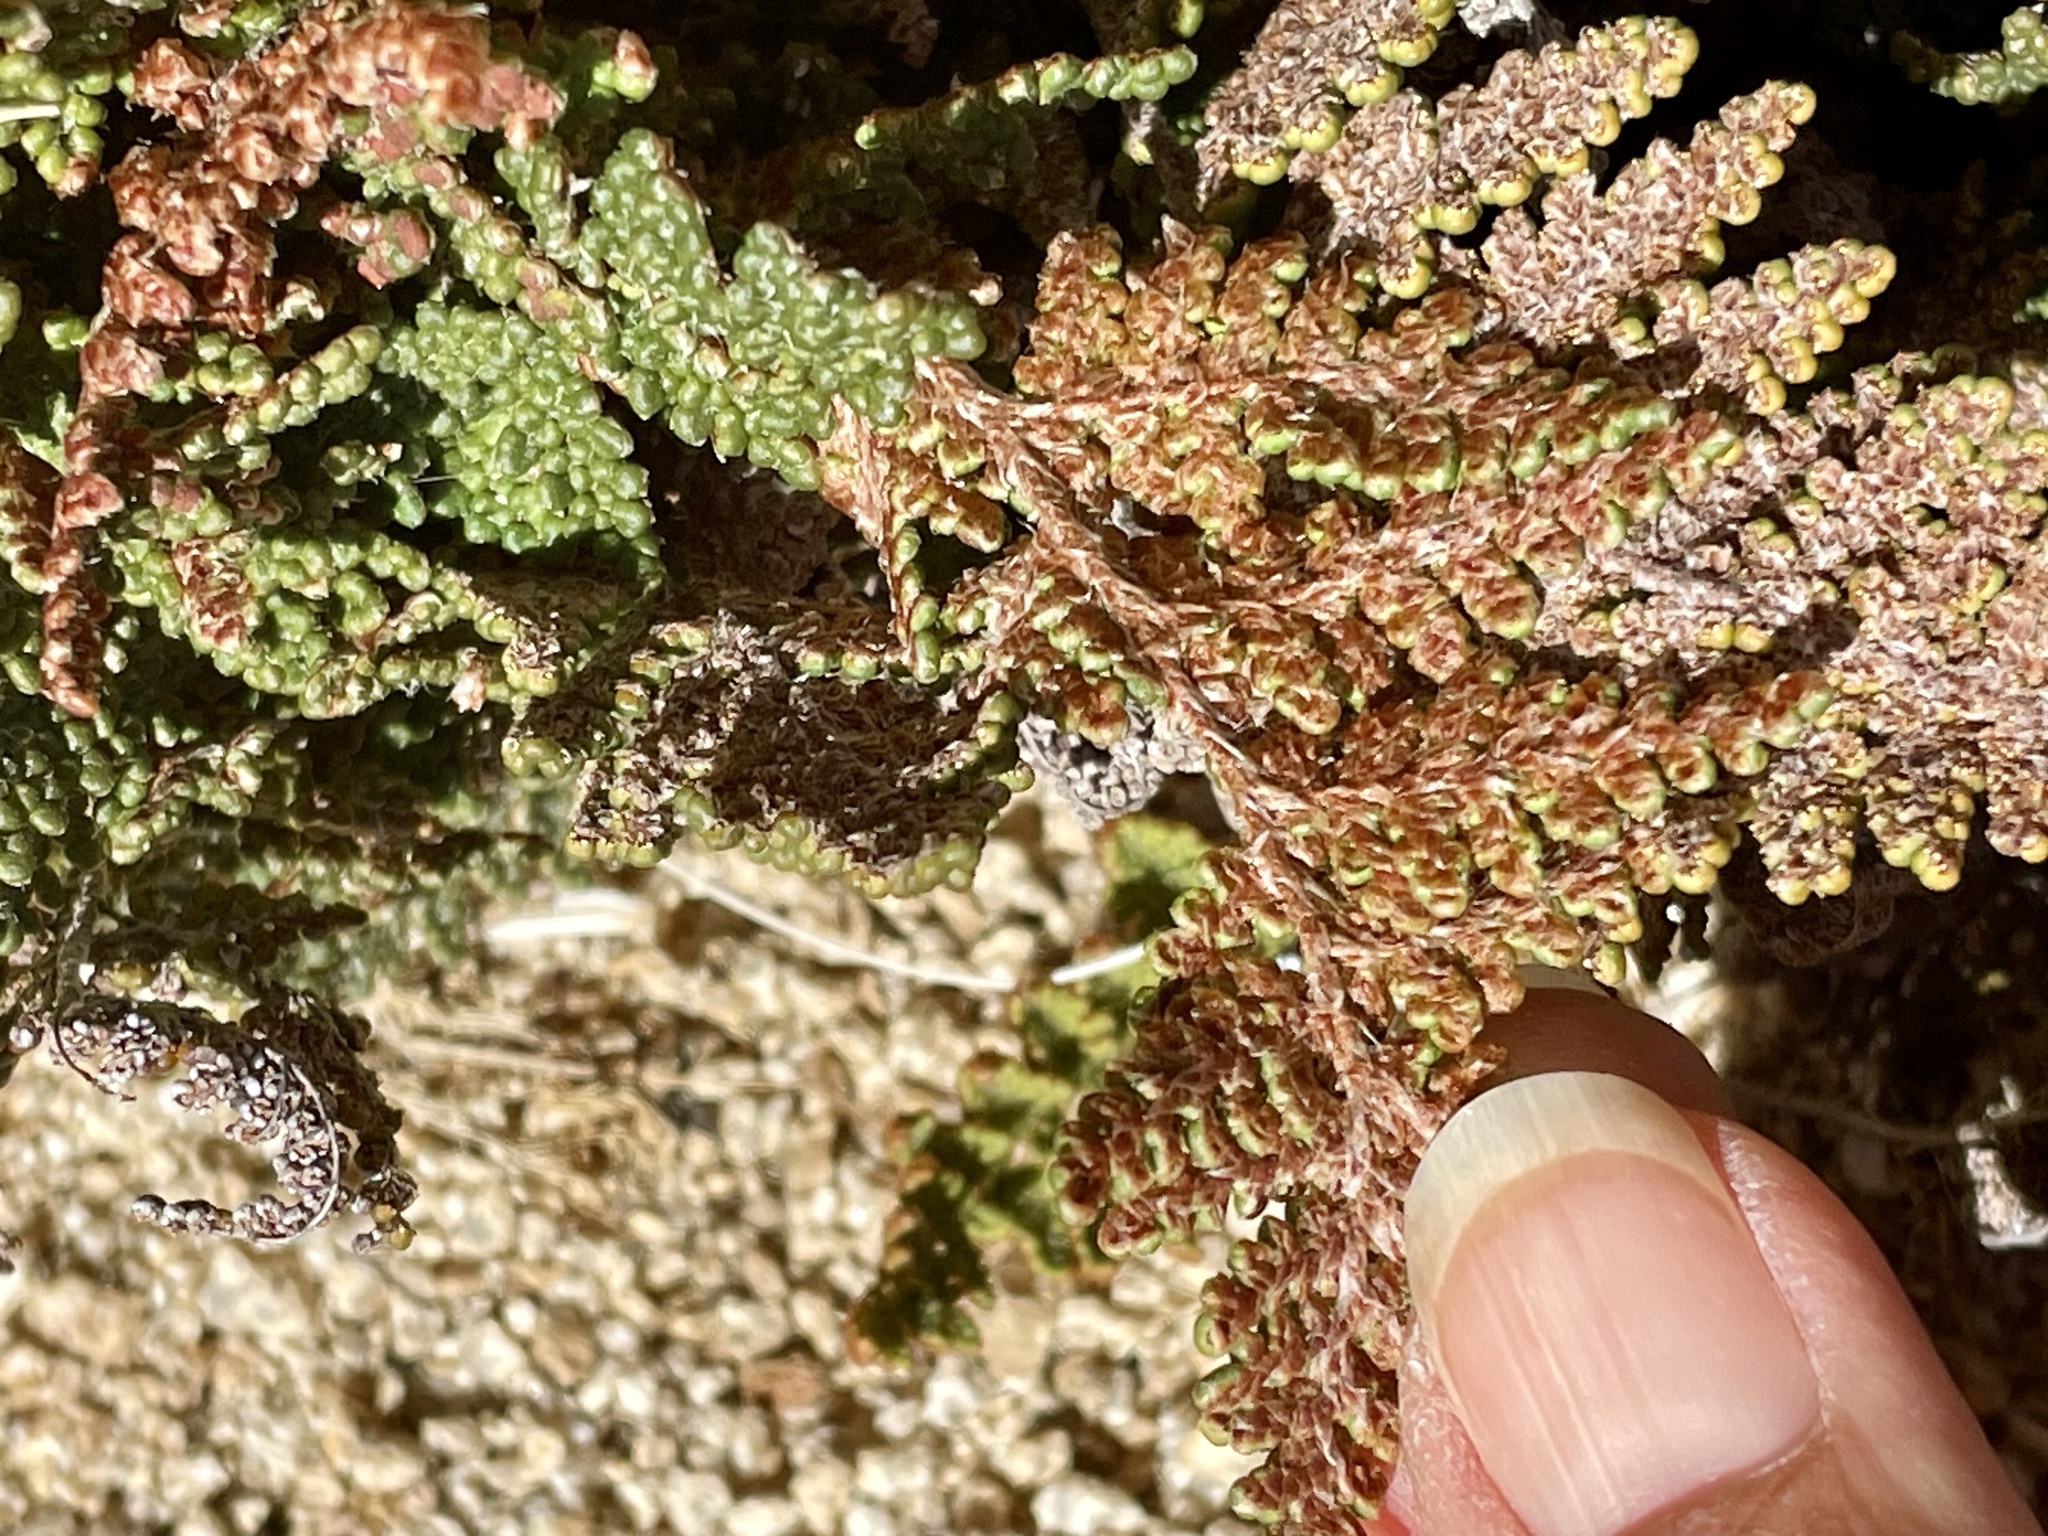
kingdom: Plantae
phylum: Tracheophyta
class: Polypodiopsida
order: Polypodiales
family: Pteridaceae
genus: Myriopteris
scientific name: Myriopteris covillei
